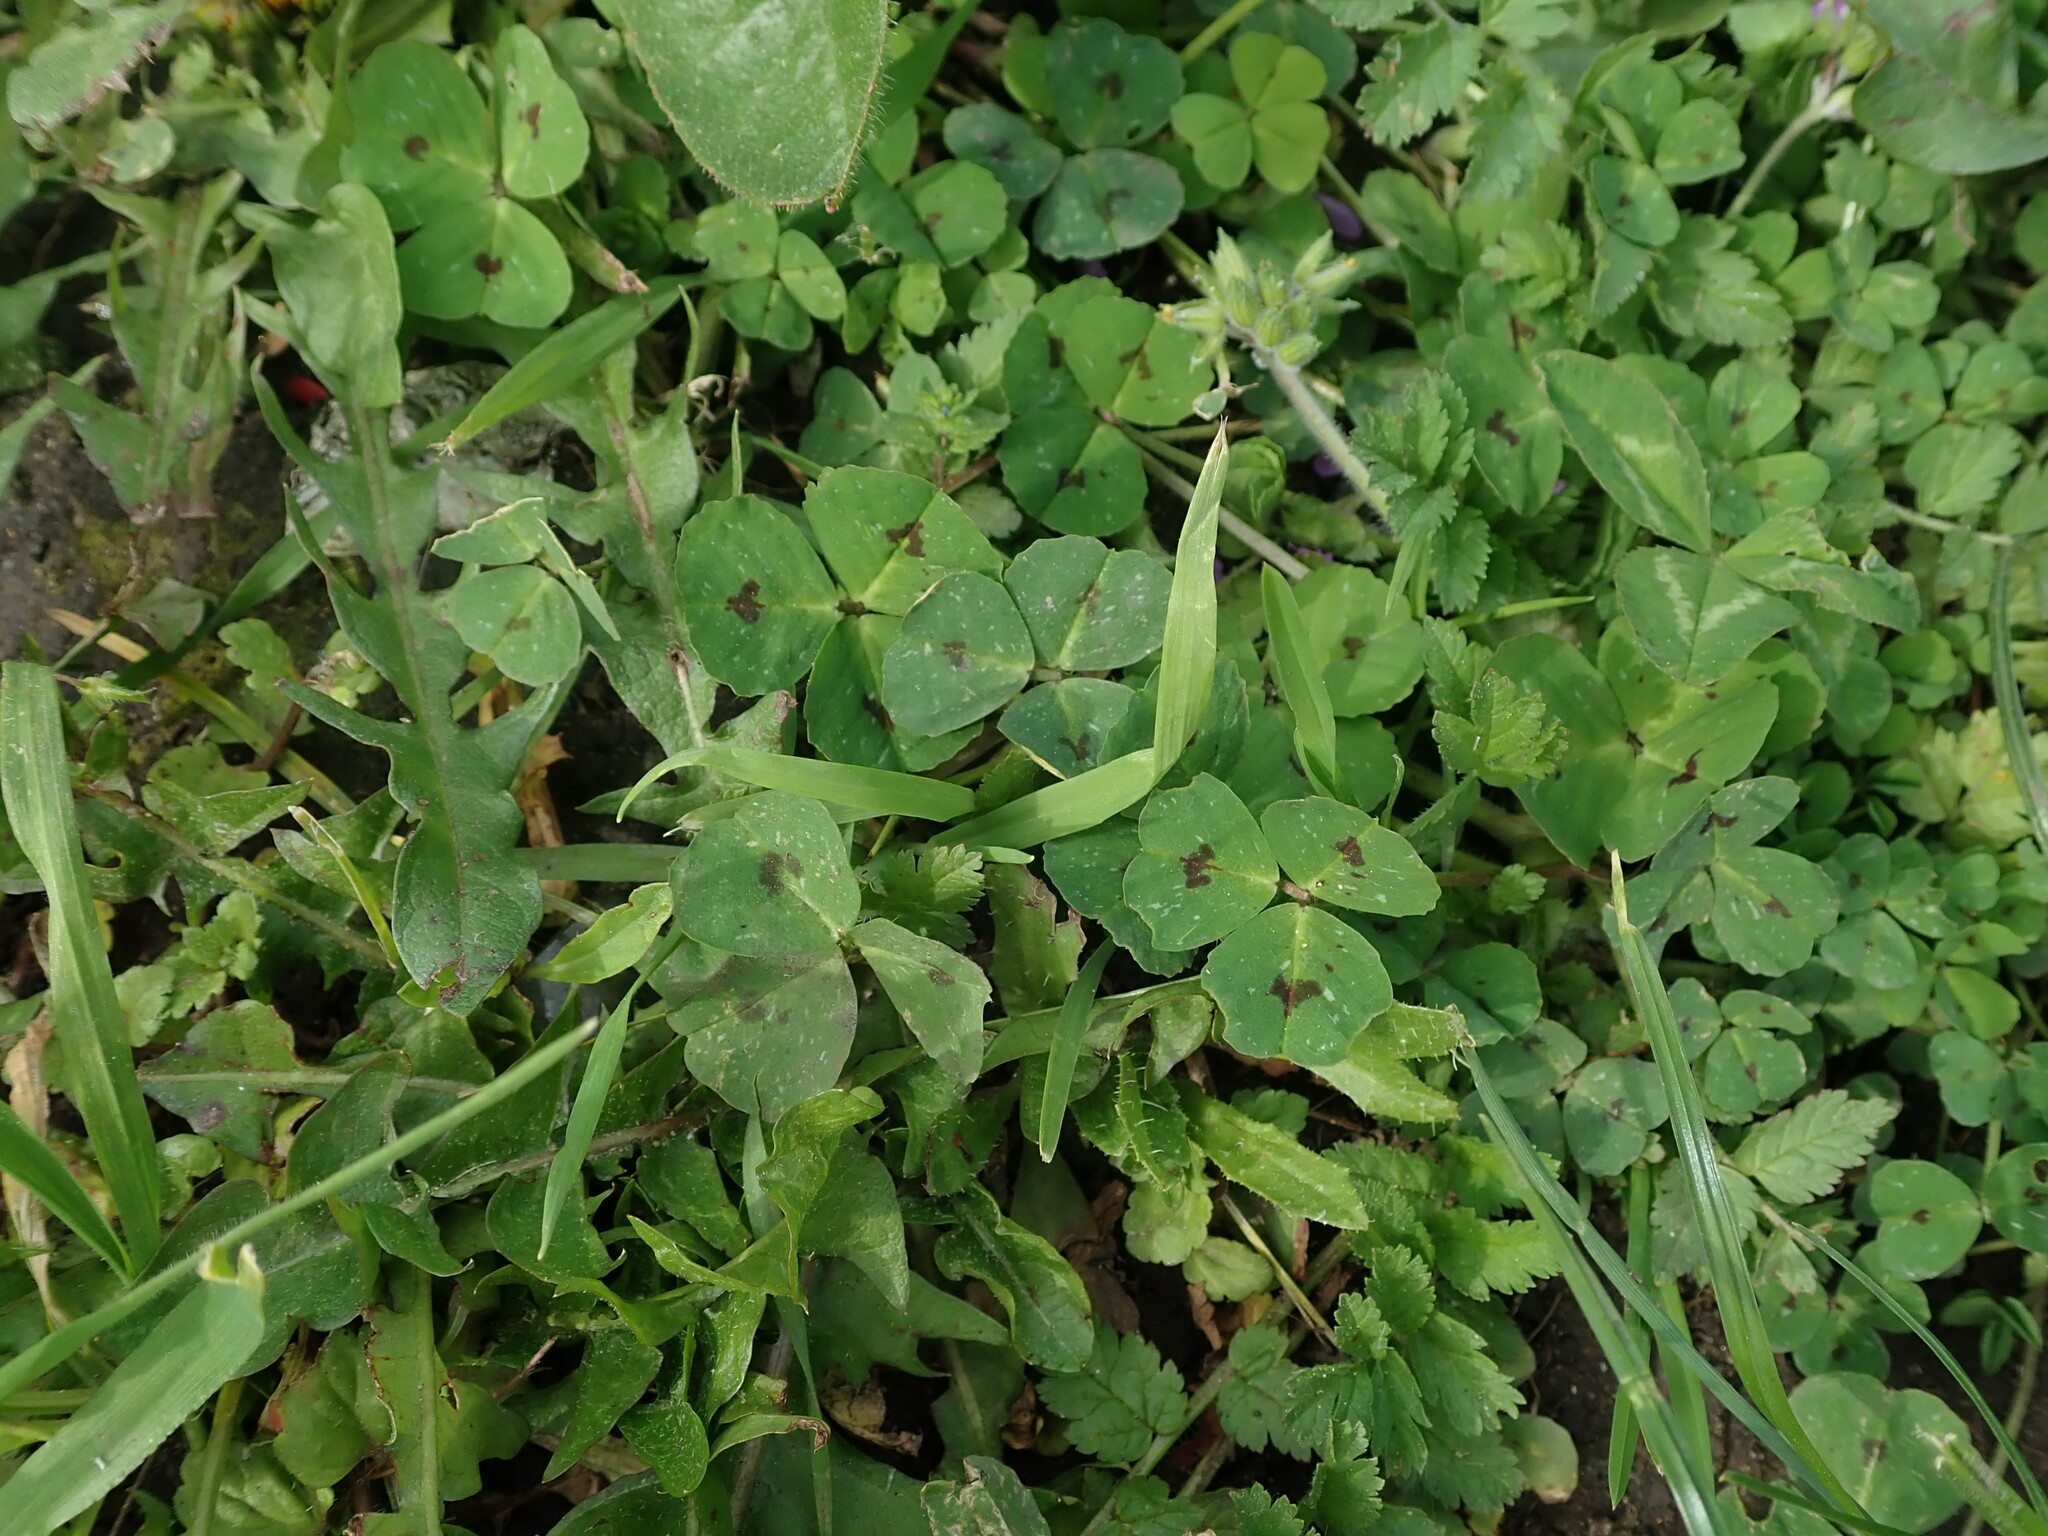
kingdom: Plantae
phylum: Tracheophyta
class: Magnoliopsida
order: Fabales
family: Fabaceae
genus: Medicago
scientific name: Medicago arabica
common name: Spotted medick
